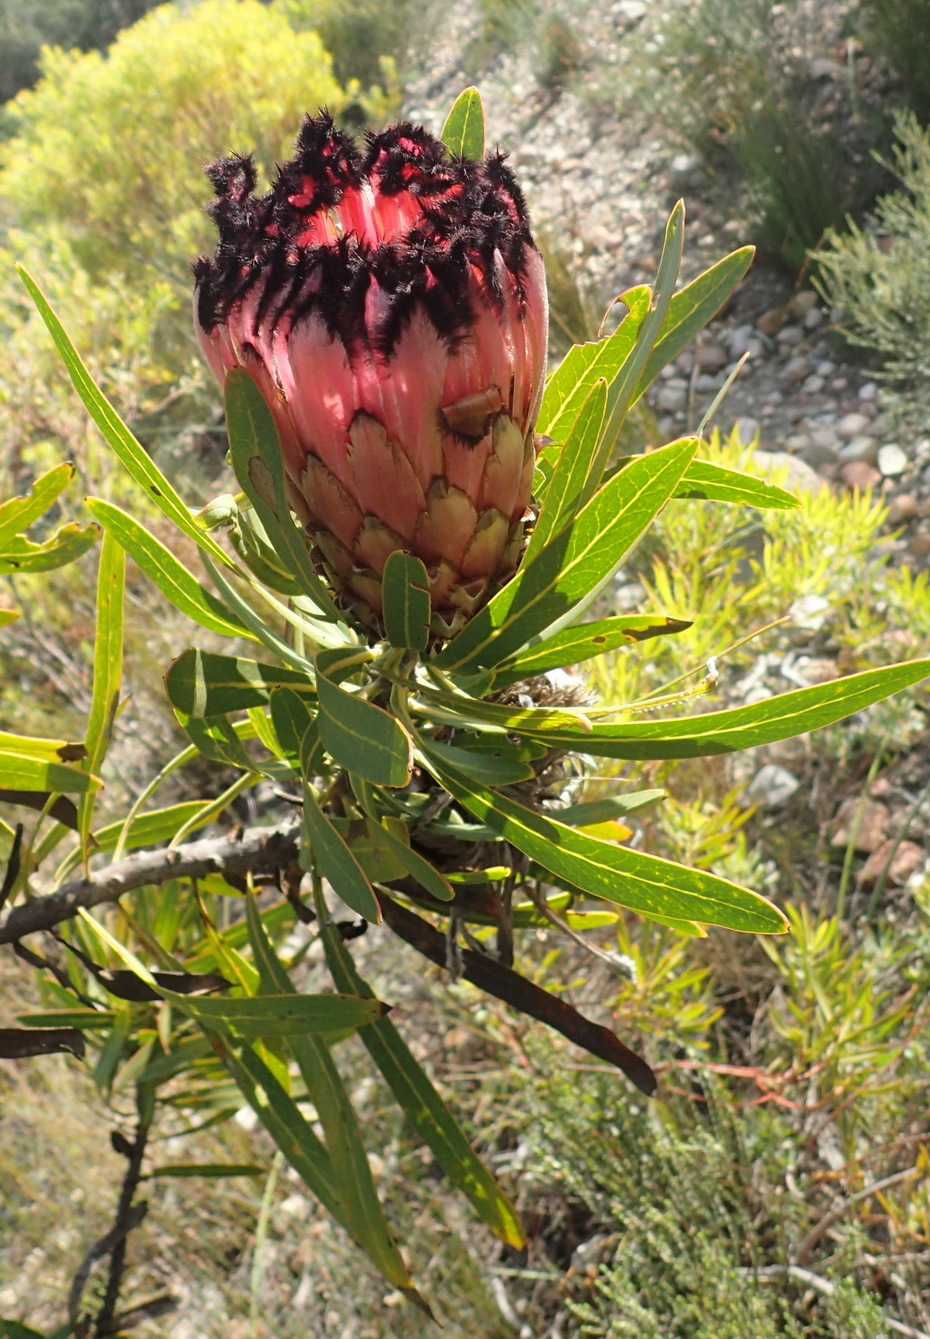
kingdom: Plantae
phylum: Tracheophyta
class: Magnoliopsida
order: Proteales
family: Proteaceae
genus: Protea
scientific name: Protea neriifolia
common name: Blue sugarbush
